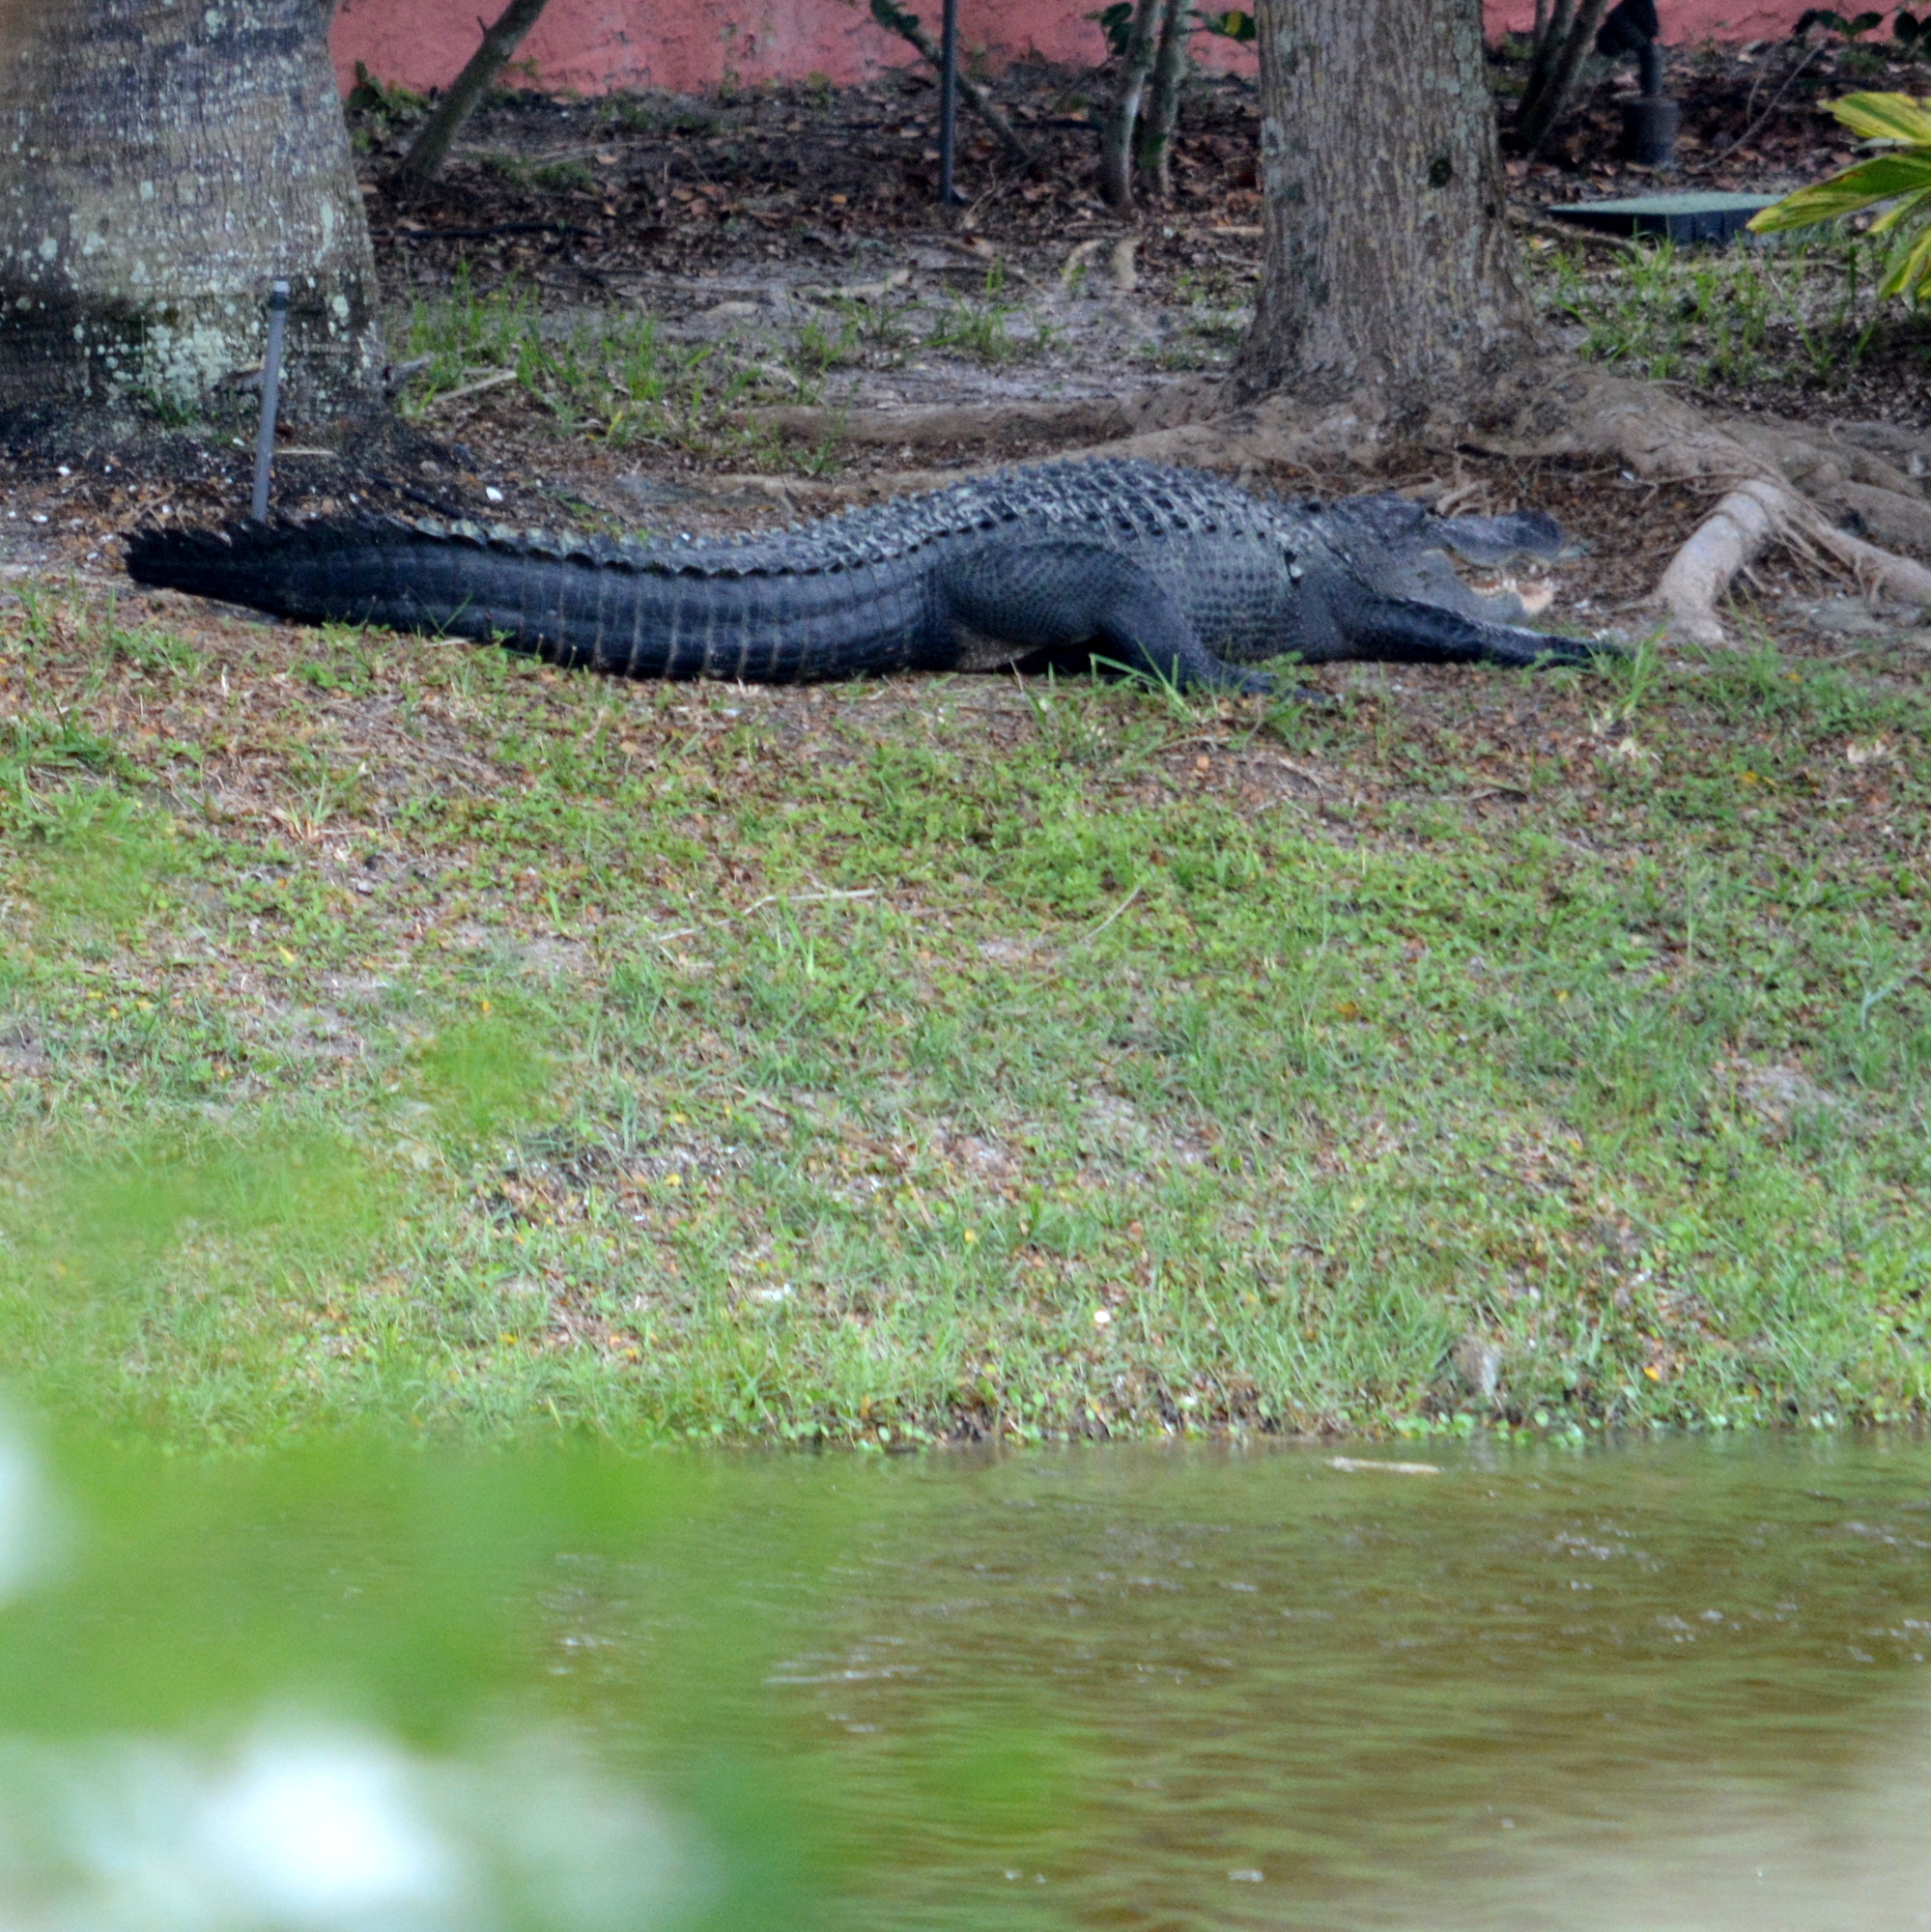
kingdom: Animalia
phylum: Chordata
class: Crocodylia
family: Alligatoridae
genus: Alligator
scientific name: Alligator mississippiensis
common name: American alligator
